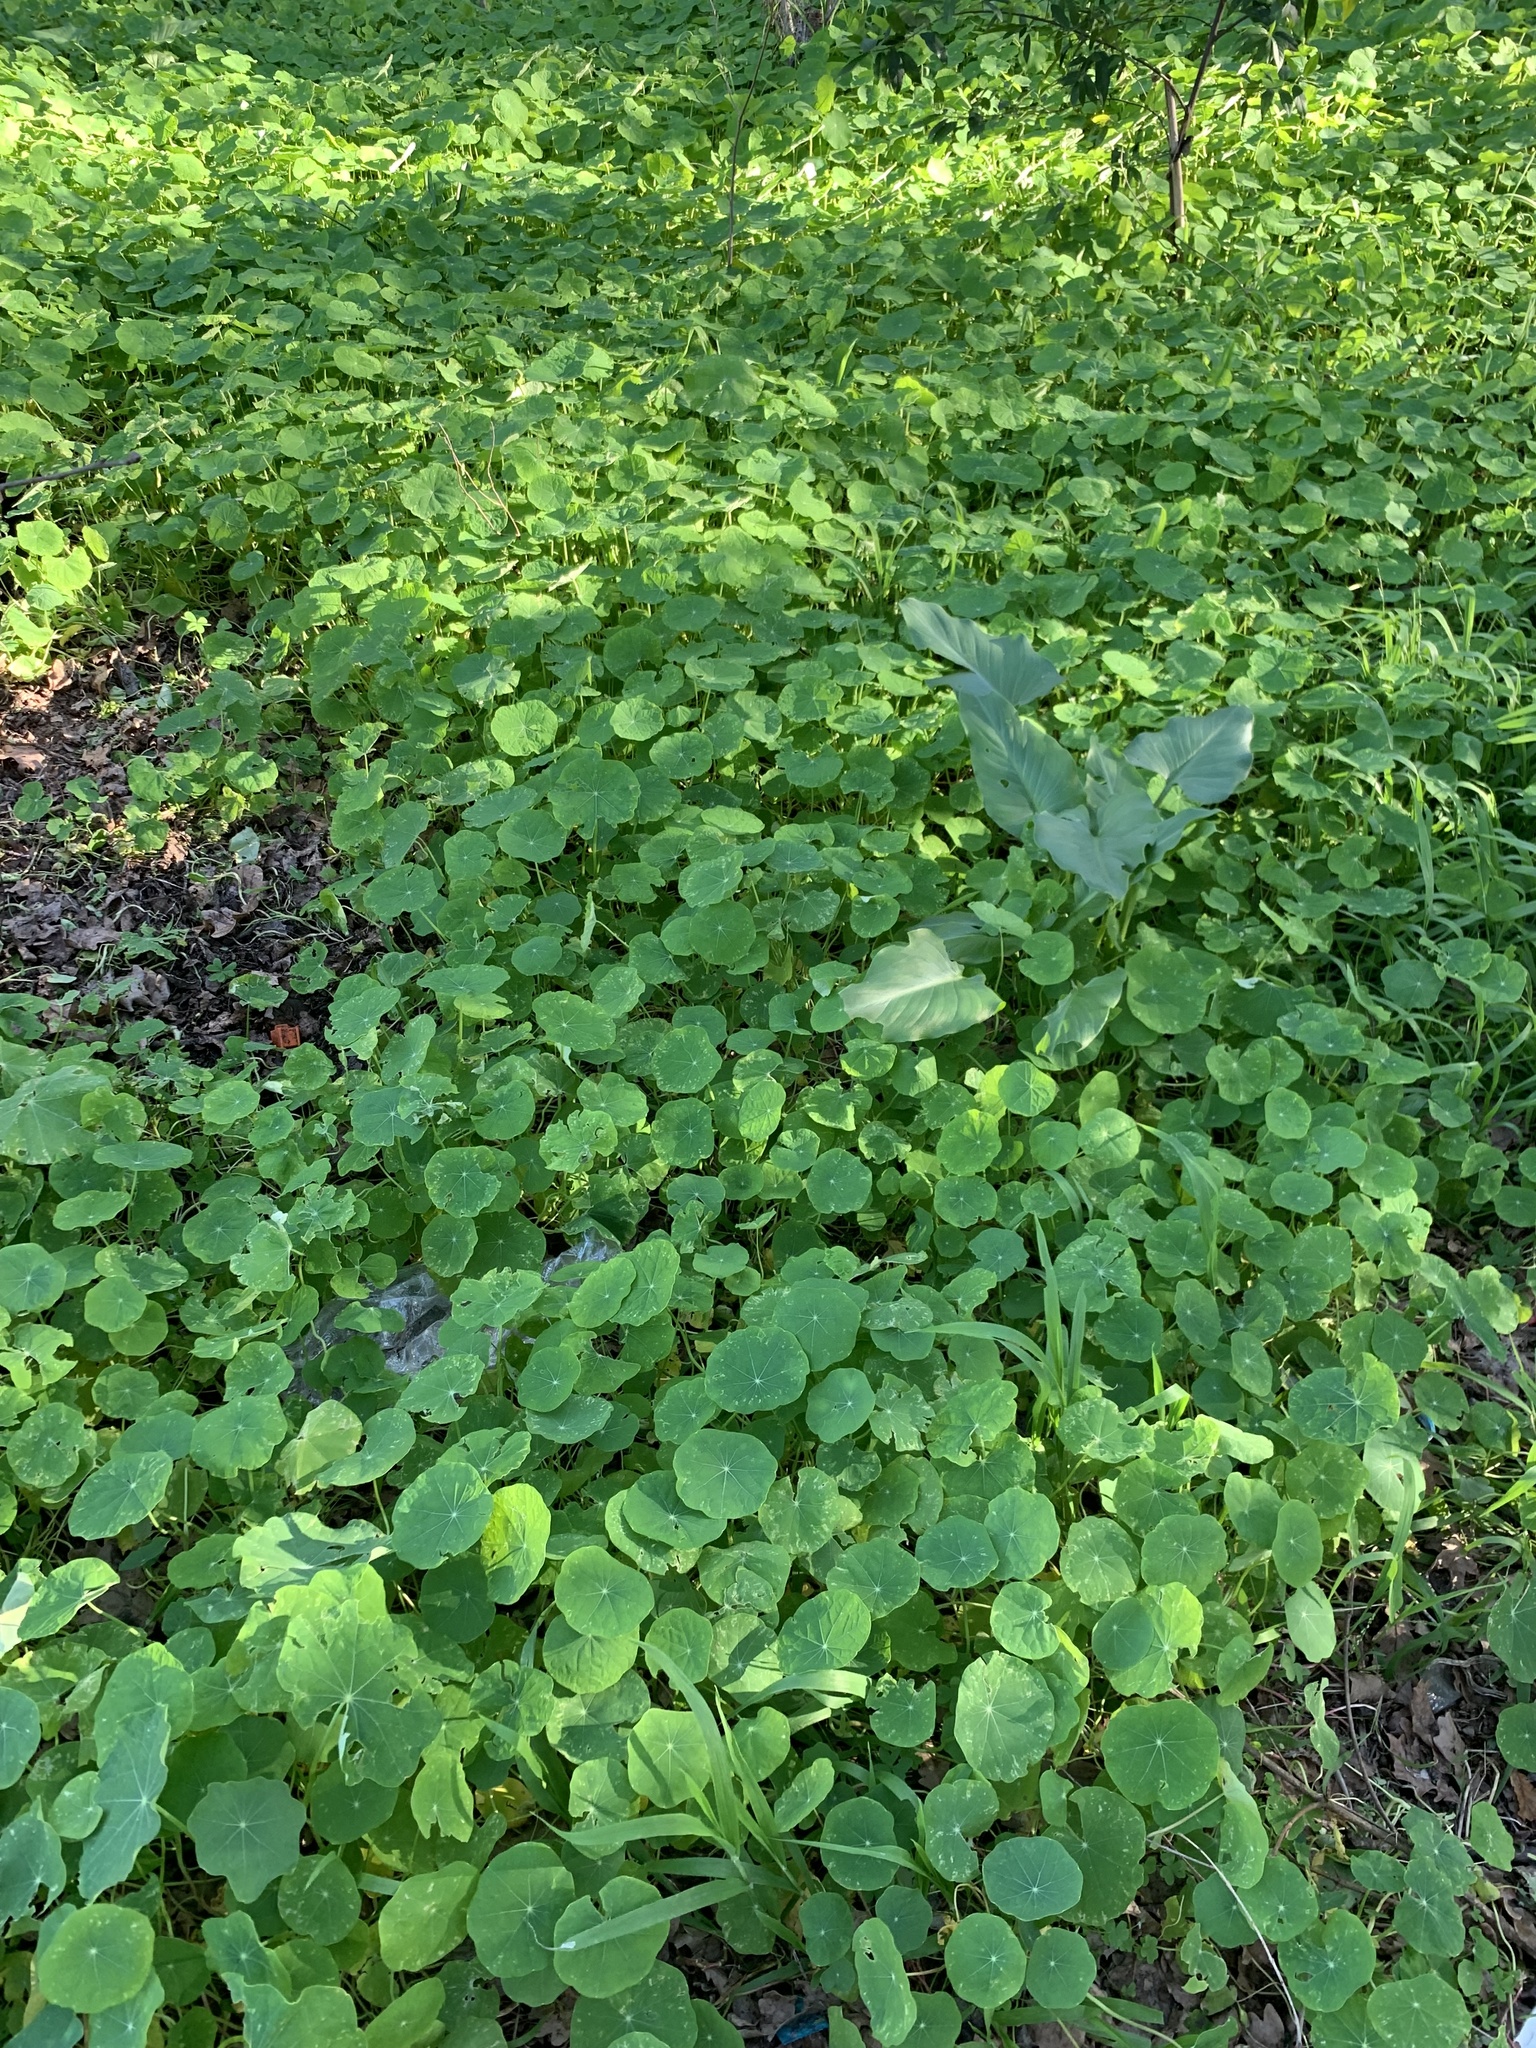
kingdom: Plantae
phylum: Tracheophyta
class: Magnoliopsida
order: Brassicales
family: Tropaeolaceae
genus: Tropaeolum
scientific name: Tropaeolum majus
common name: Nasturtium
